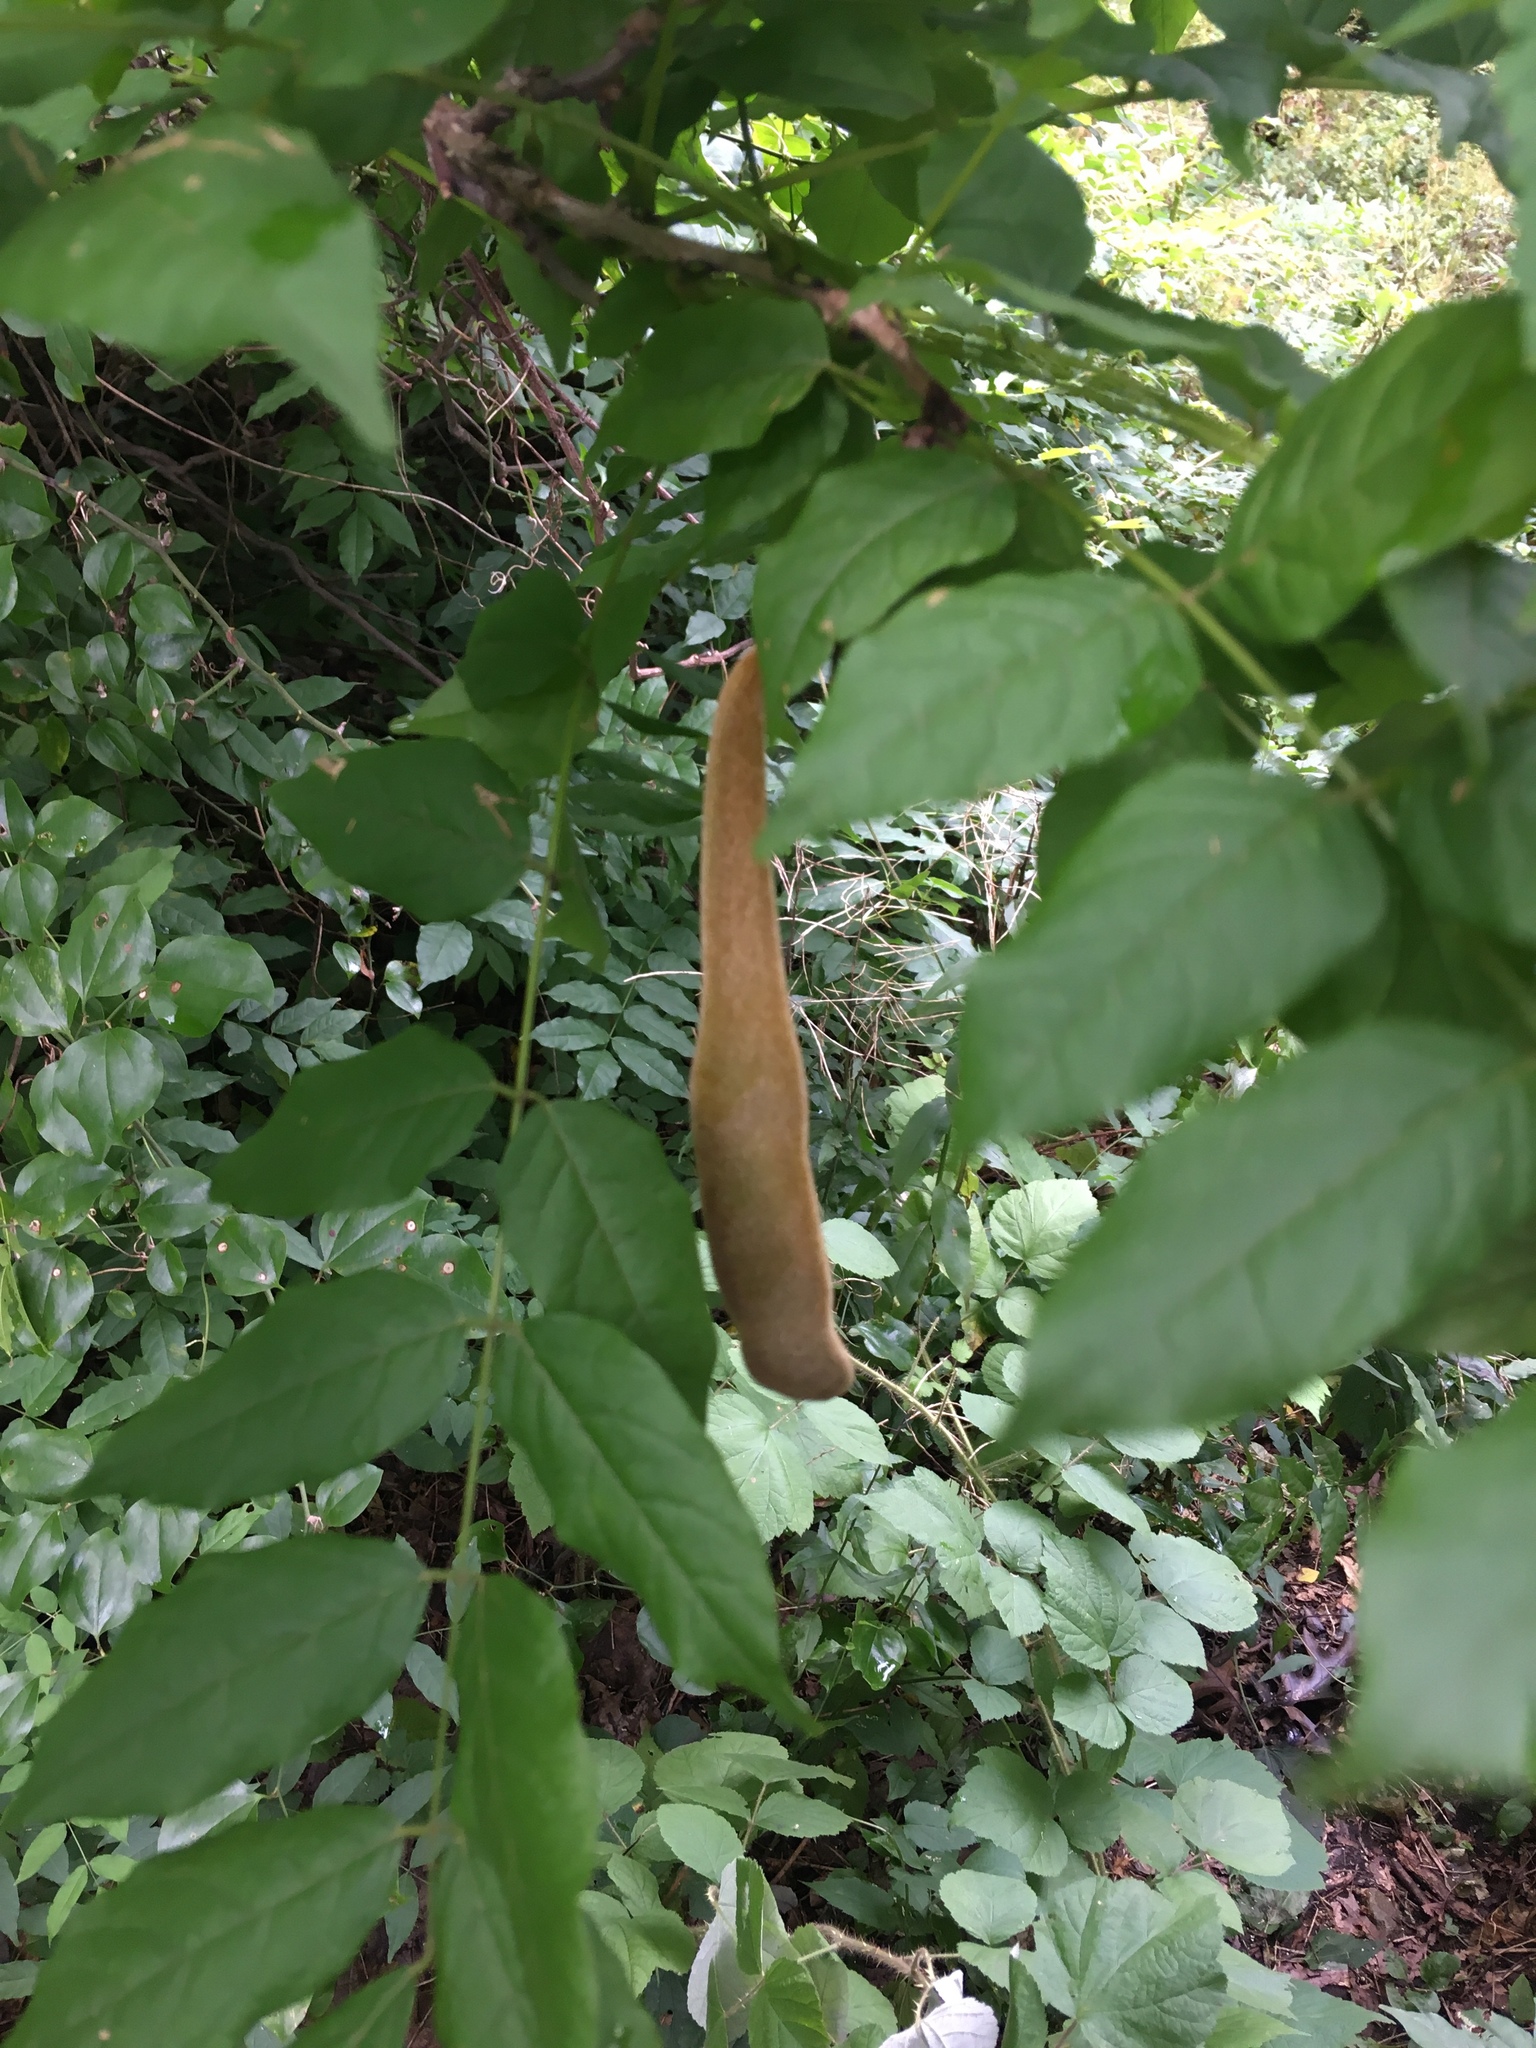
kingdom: Plantae
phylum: Tracheophyta
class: Magnoliopsida
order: Fabales
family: Fabaceae
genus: Wisteria
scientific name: Wisteria sinensis
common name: Chinese wisteria
